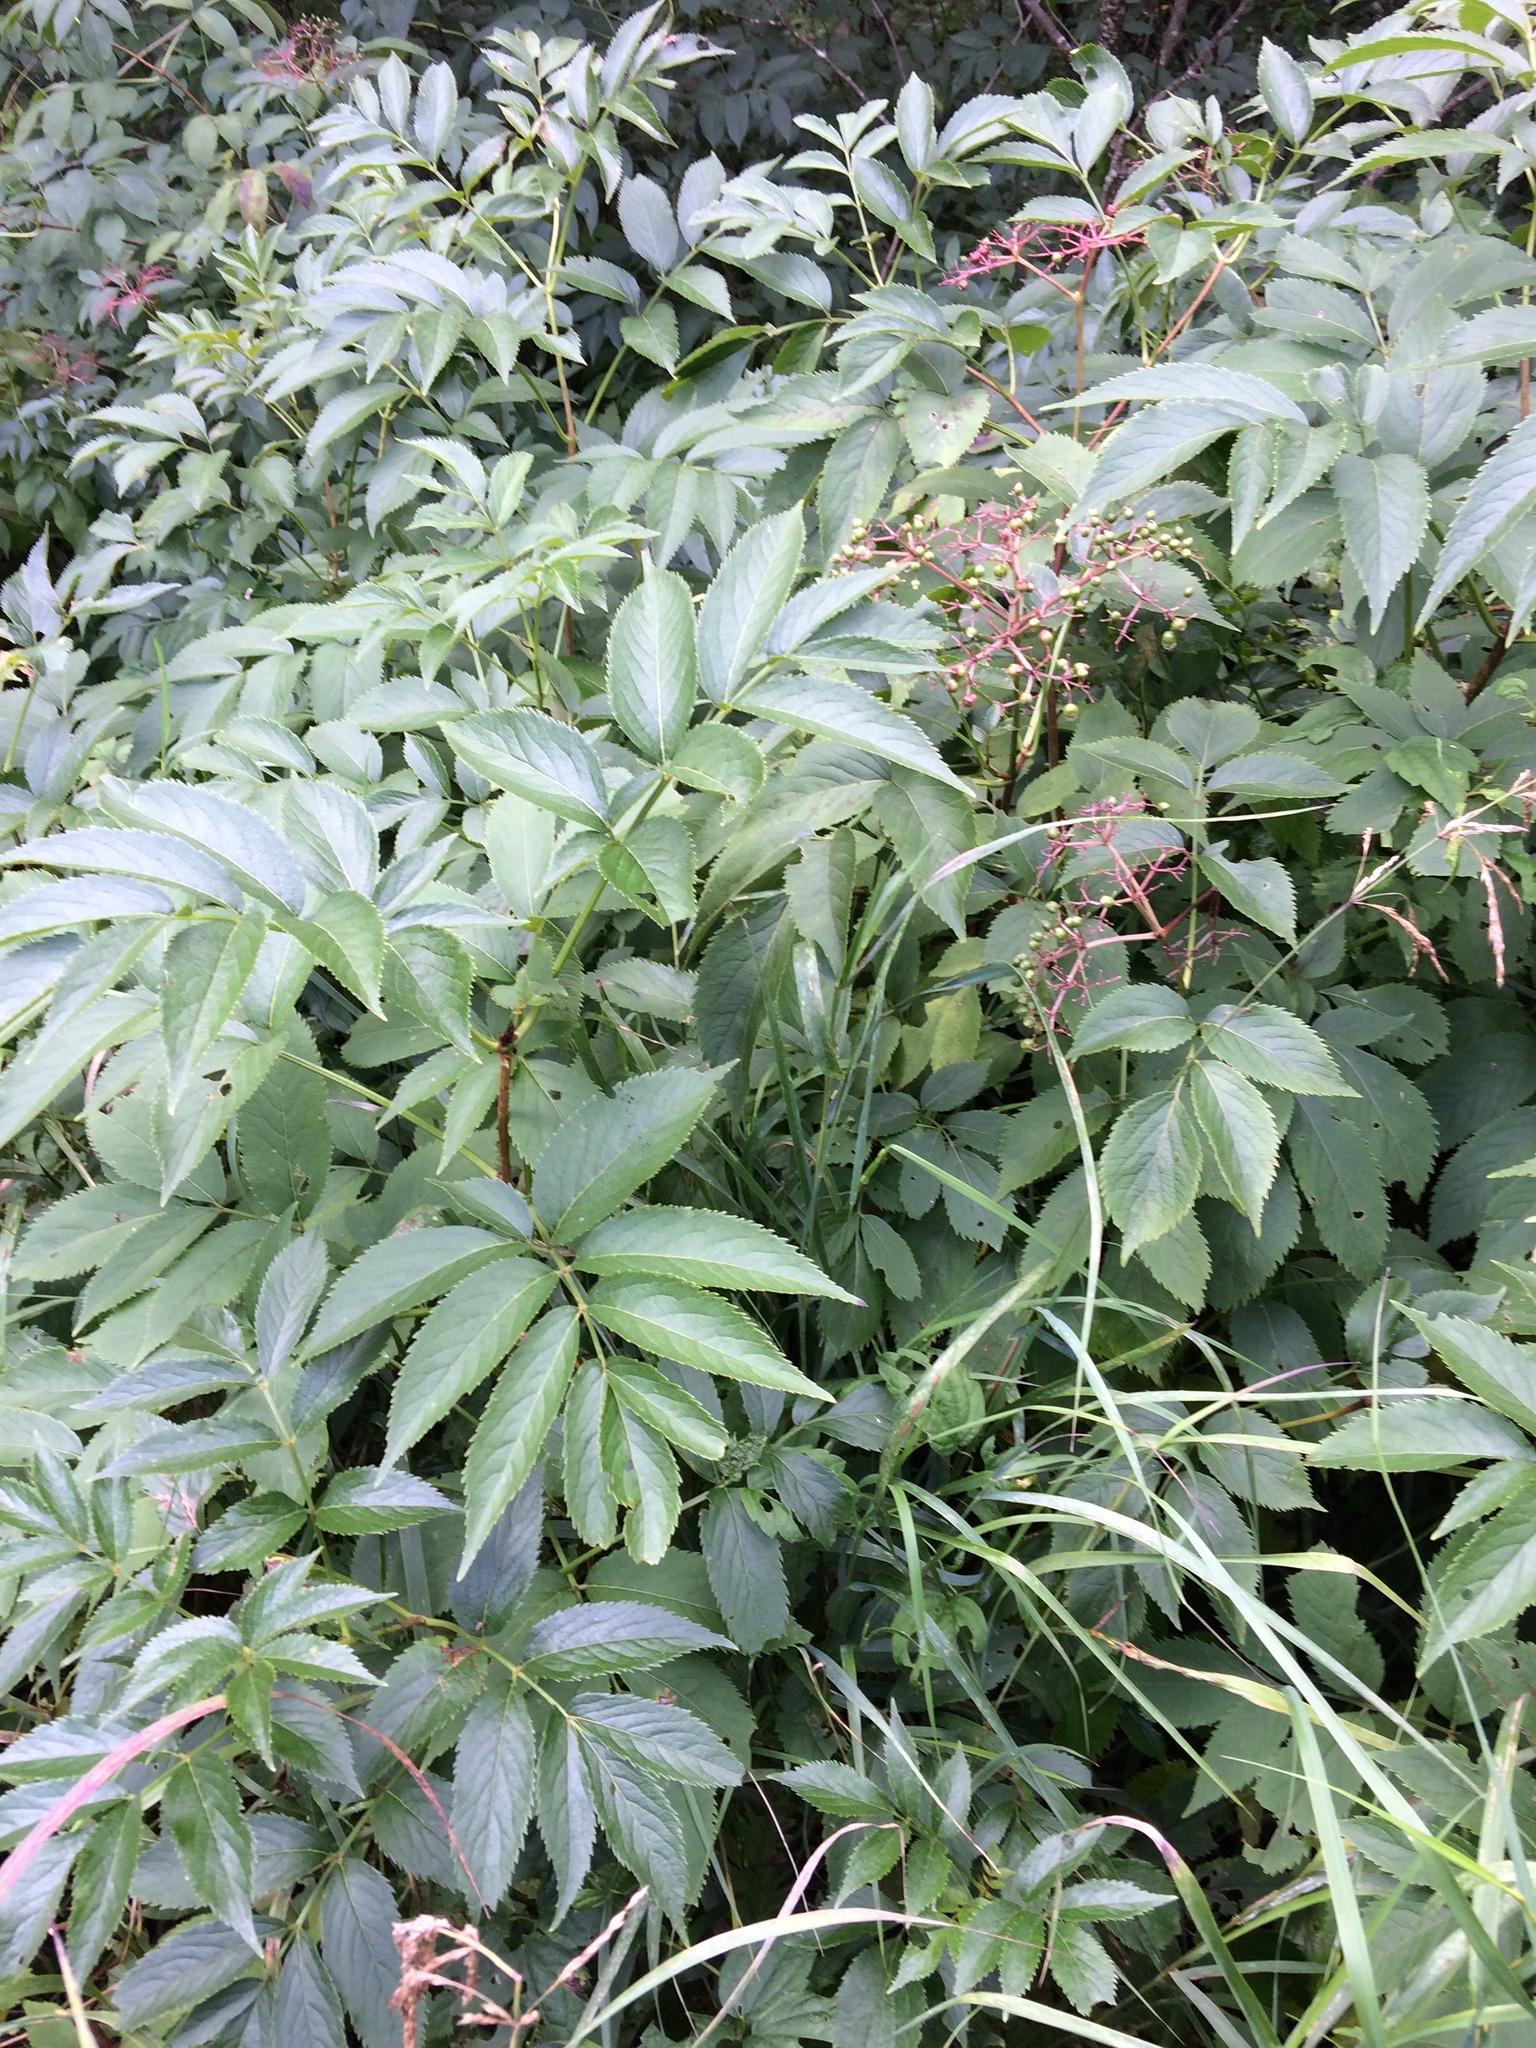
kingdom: Plantae
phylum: Tracheophyta
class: Magnoliopsida
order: Dipsacales
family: Viburnaceae
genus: Sambucus
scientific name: Sambucus canadensis
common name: American elder
